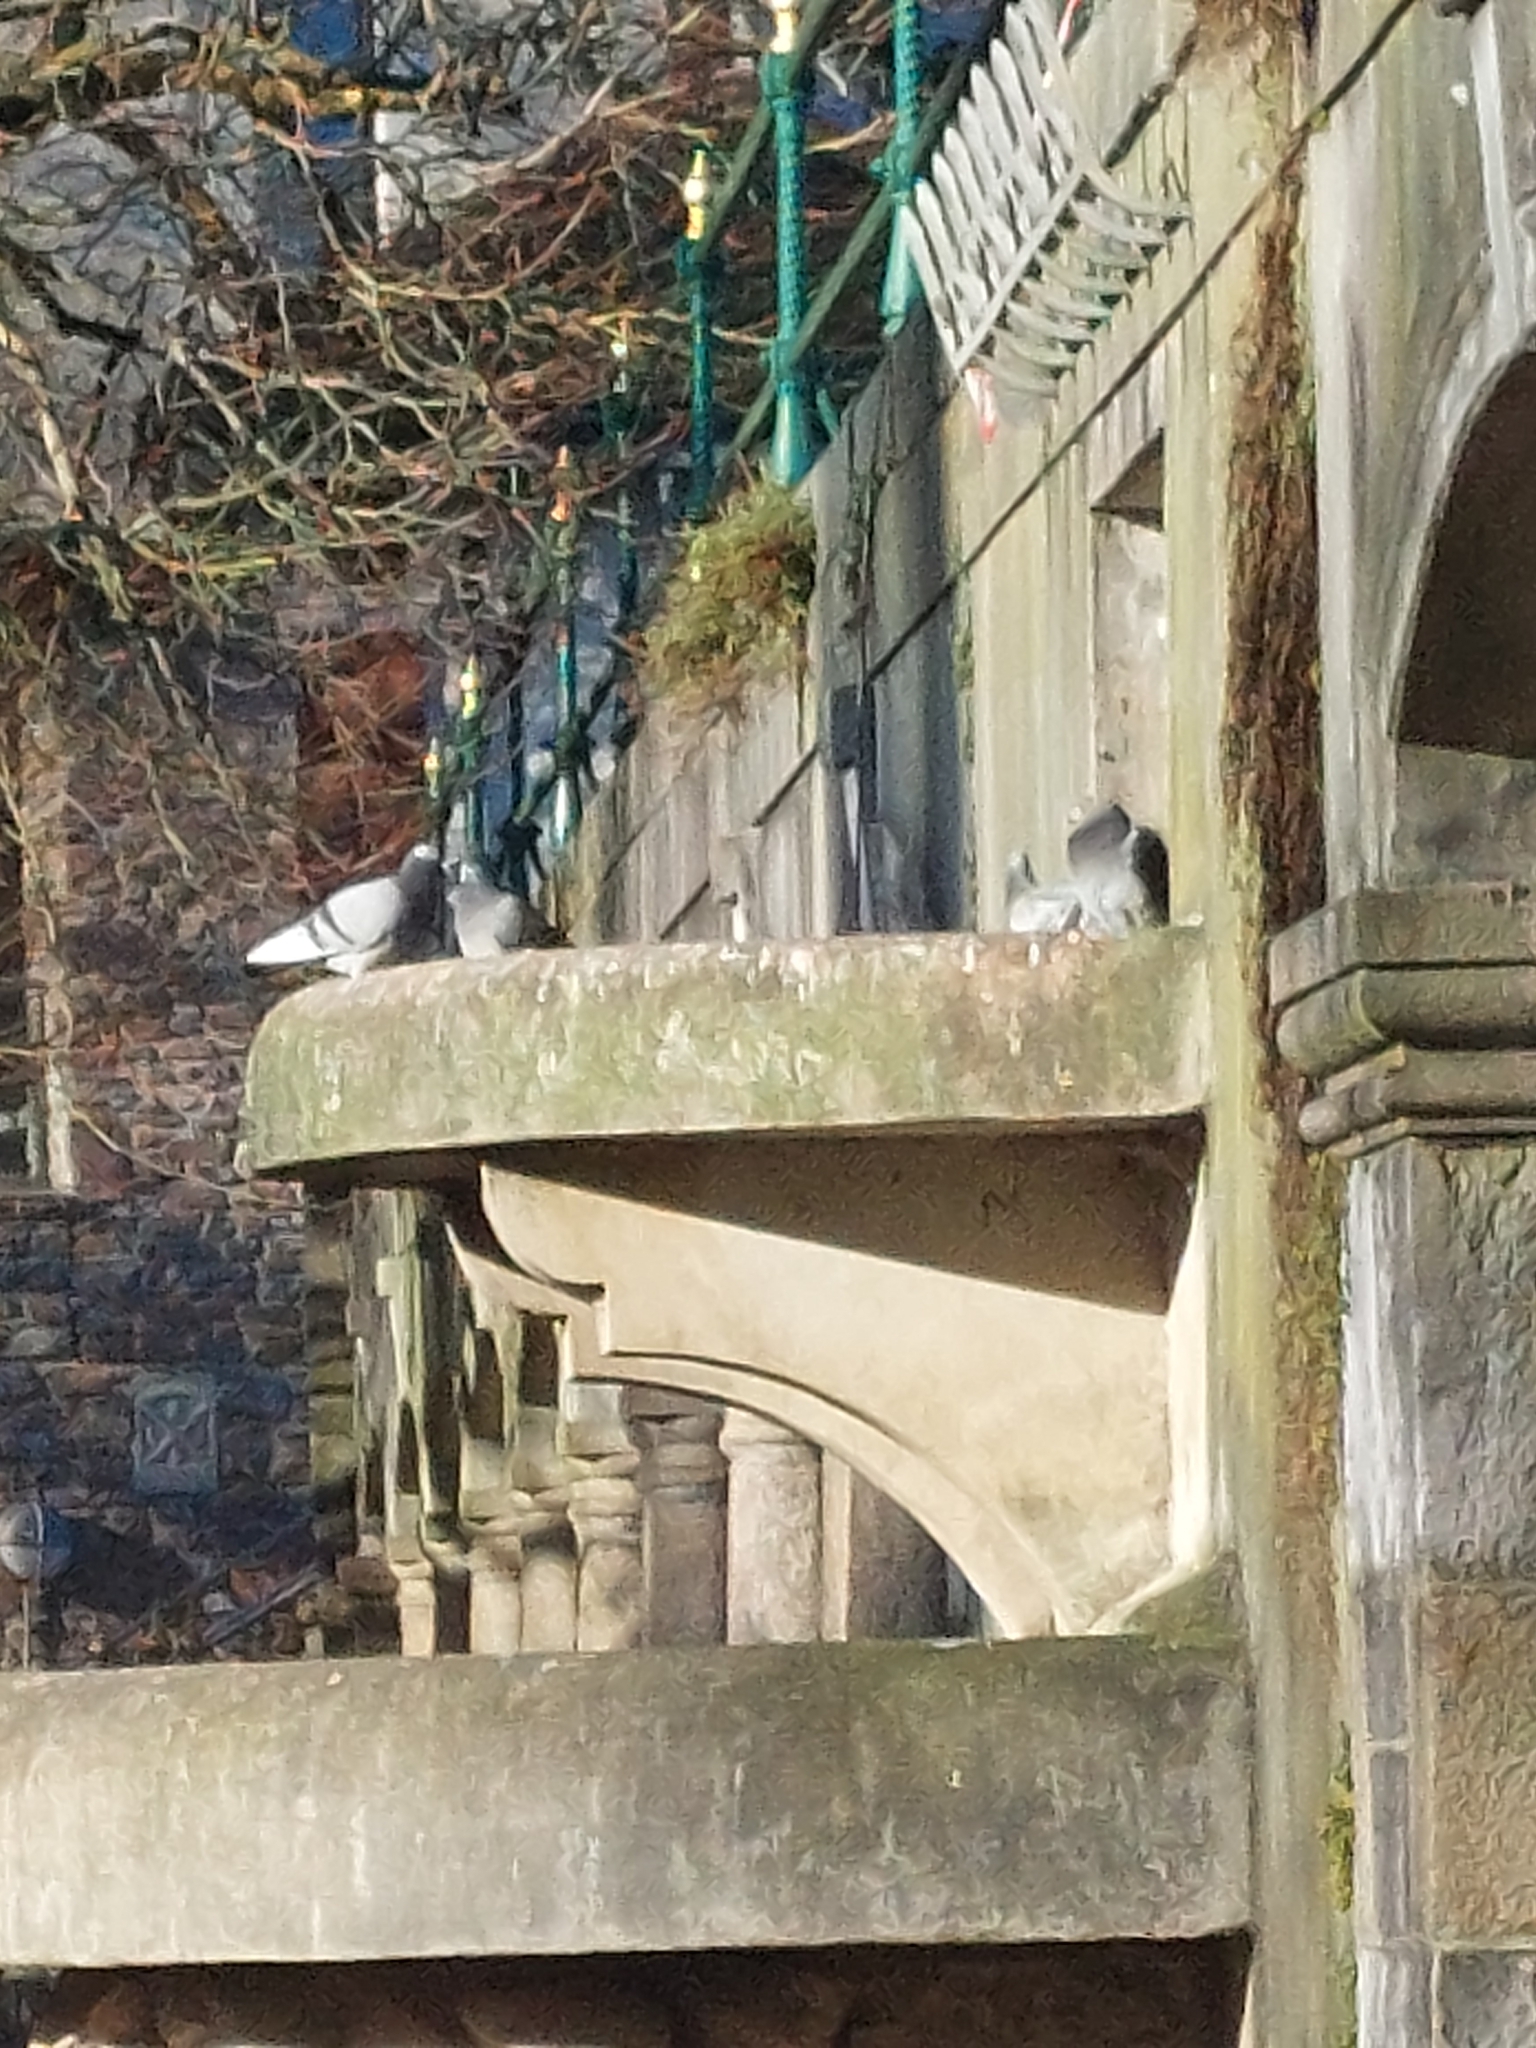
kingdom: Animalia
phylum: Chordata
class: Aves
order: Columbiformes
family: Columbidae
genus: Columba
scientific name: Columba livia
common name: Rock pigeon
